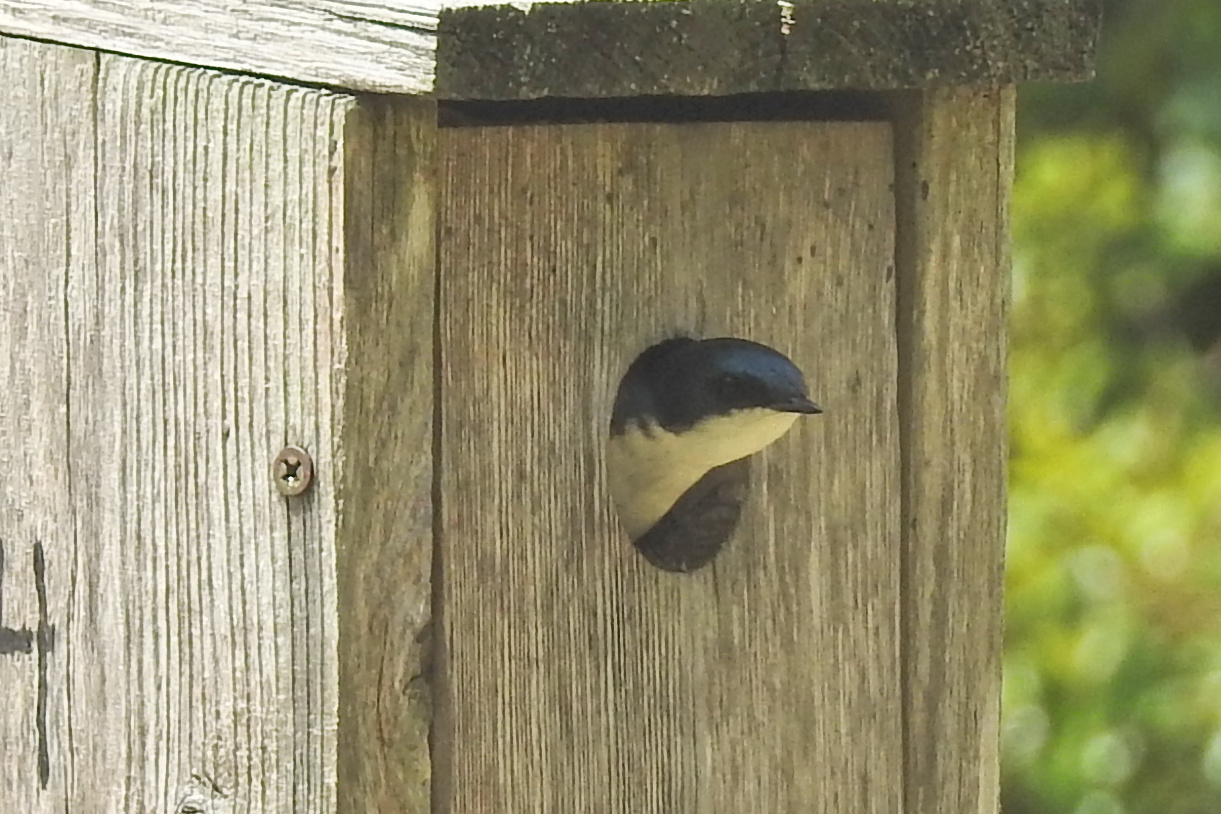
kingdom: Animalia
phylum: Chordata
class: Aves
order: Passeriformes
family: Hirundinidae
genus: Tachycineta
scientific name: Tachycineta bicolor
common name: Tree swallow
